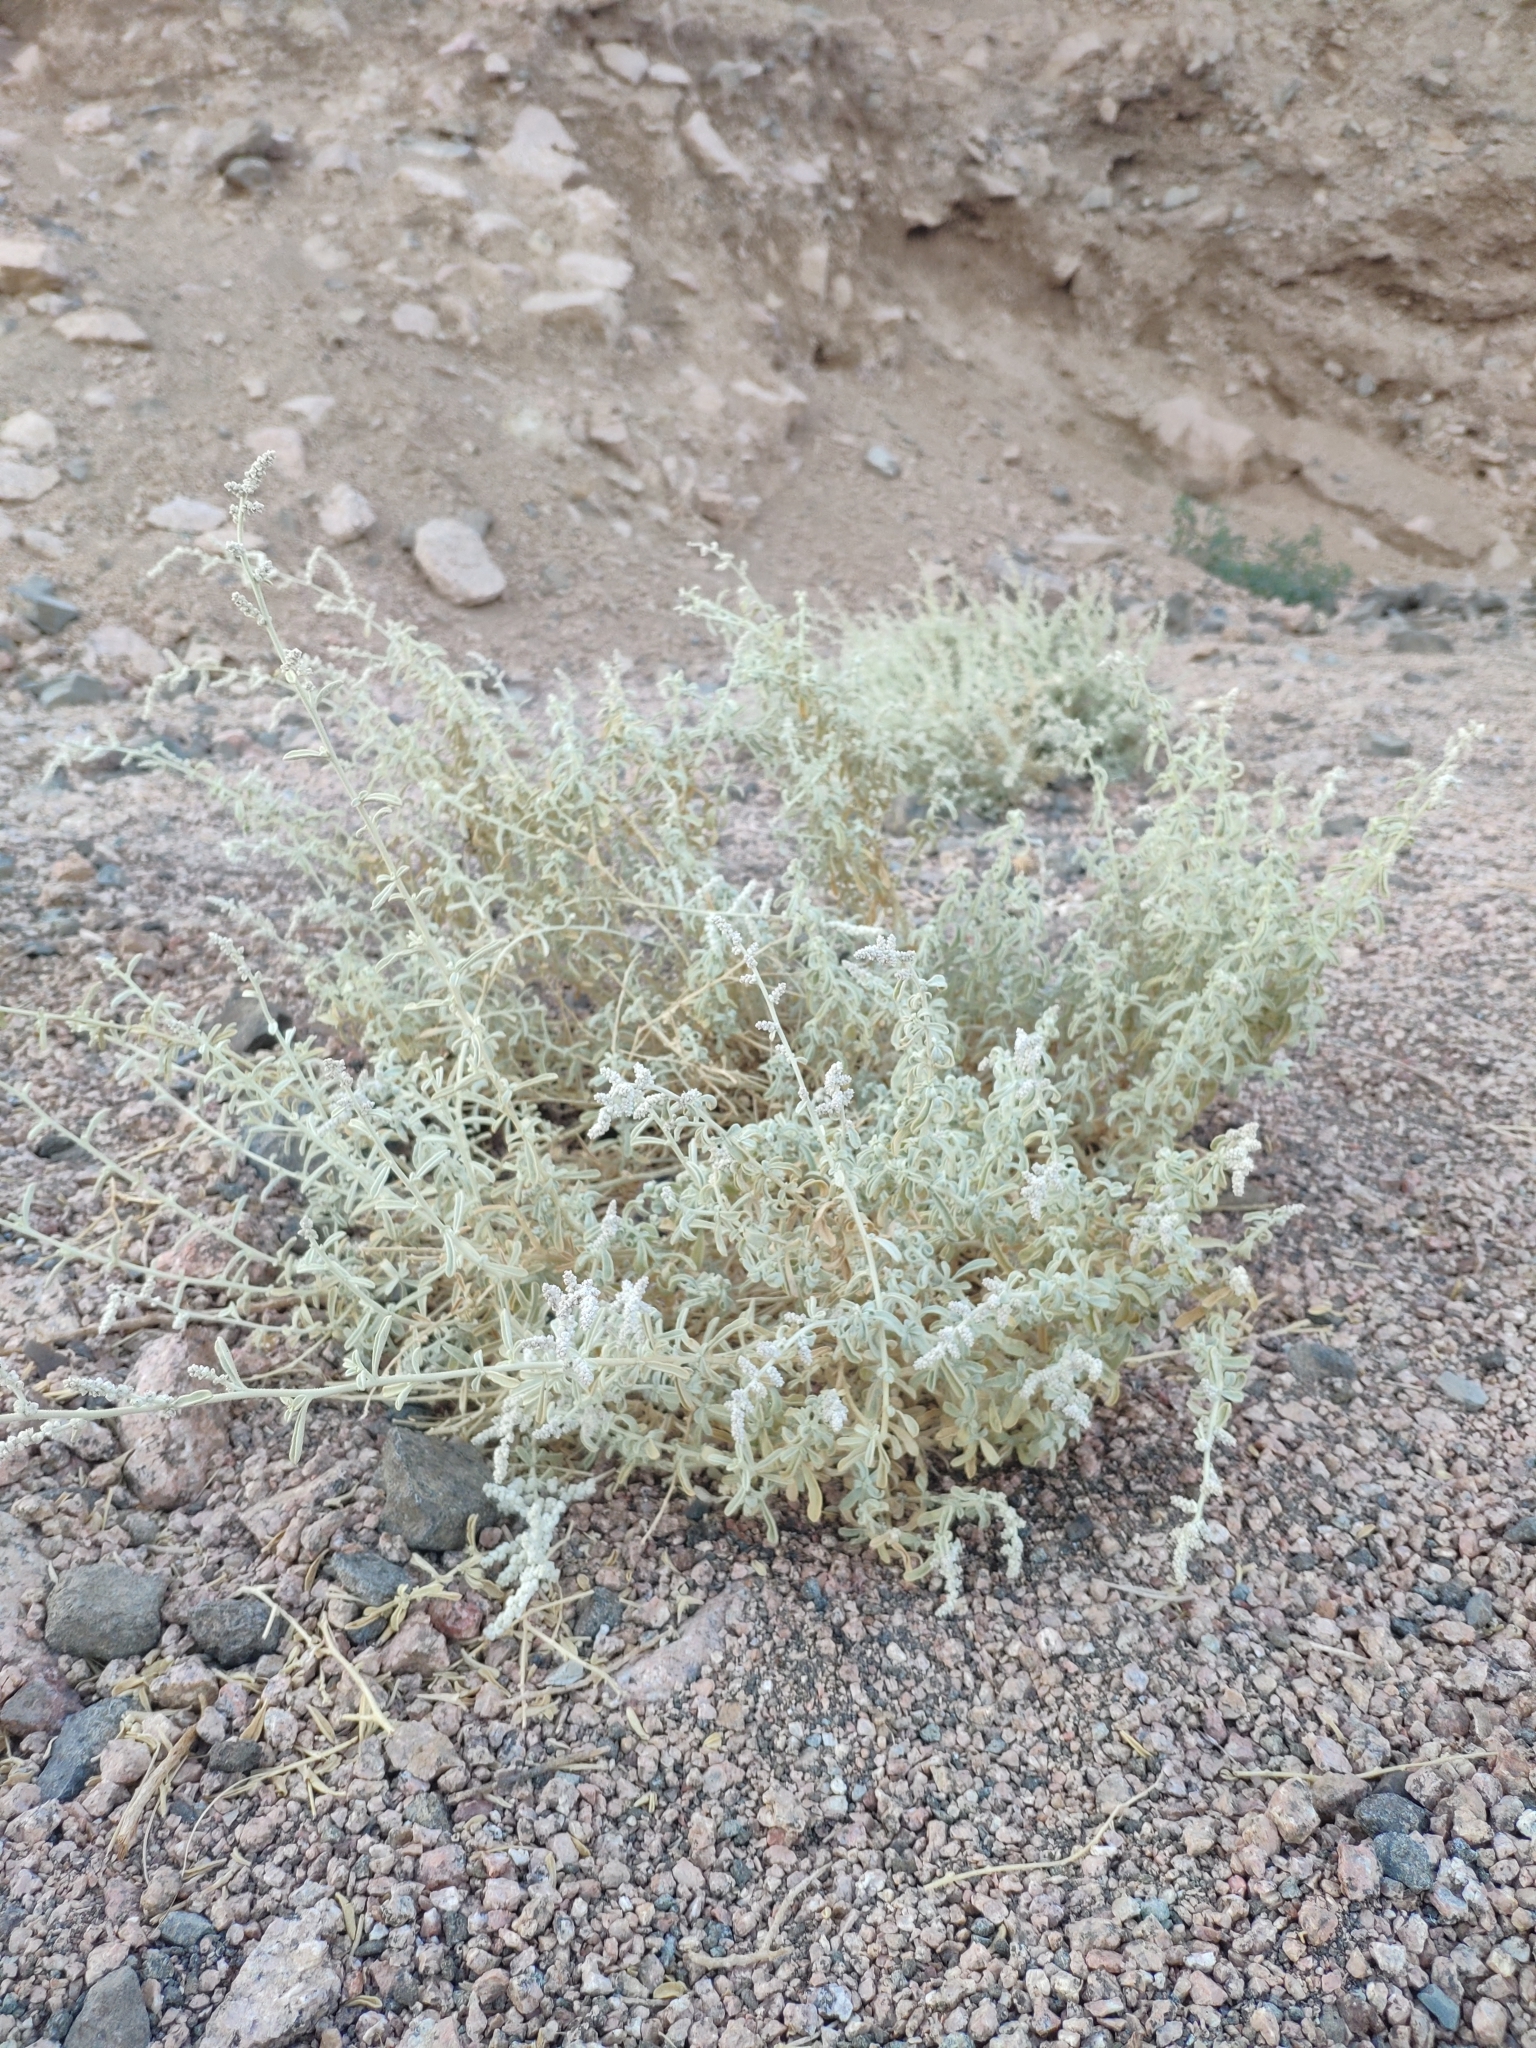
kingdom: Plantae
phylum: Tracheophyta
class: Magnoliopsida
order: Caryophyllales
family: Amaranthaceae
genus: Aerva
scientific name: Aerva javanica
